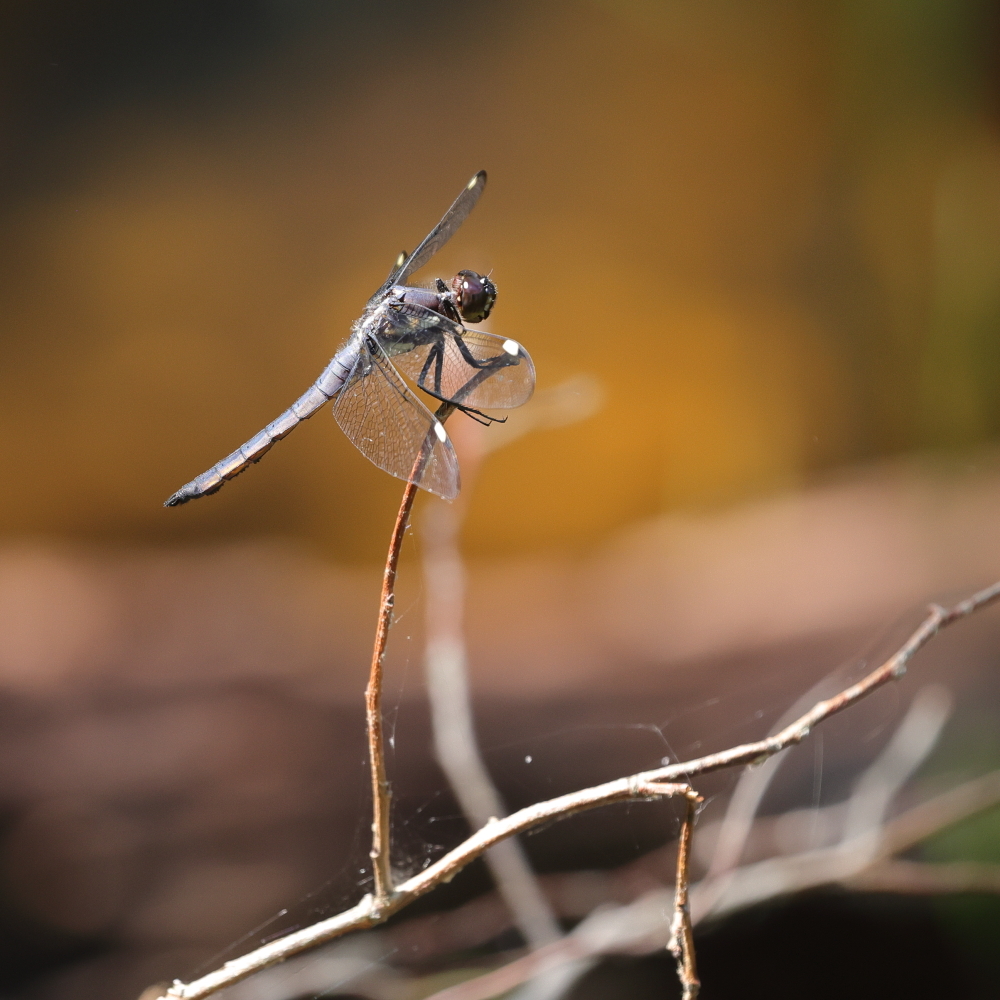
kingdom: Animalia
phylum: Arthropoda
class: Insecta
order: Odonata
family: Libellulidae
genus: Libellula
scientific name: Libellula cyanea
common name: Spangled skimmer
